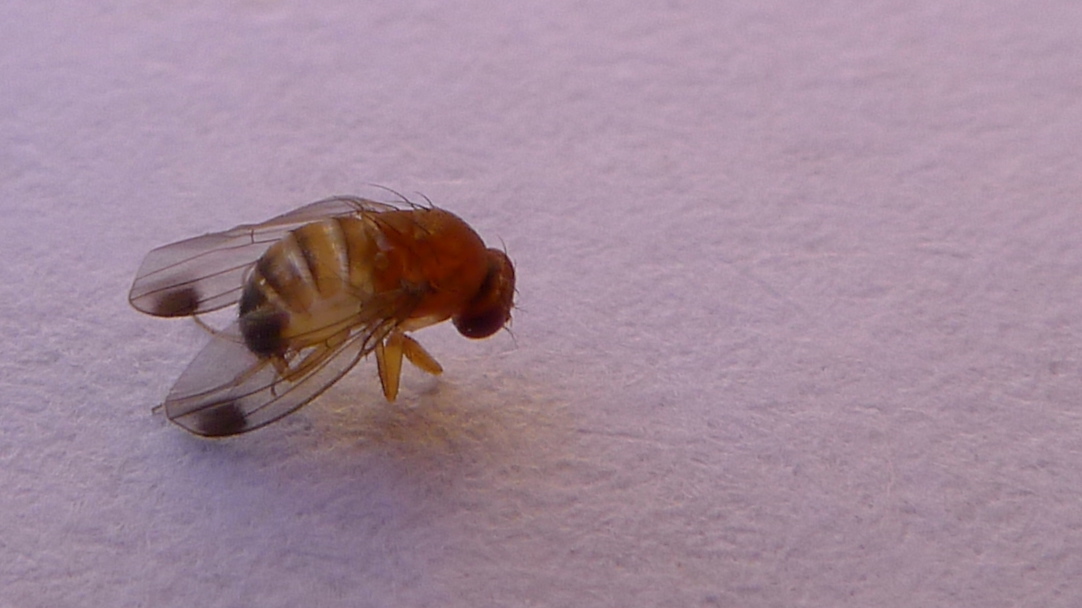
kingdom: Animalia
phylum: Arthropoda
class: Insecta
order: Diptera
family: Drosophilidae
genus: Drosophila
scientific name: Drosophila suzukii
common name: Spotted-wing drosophila
